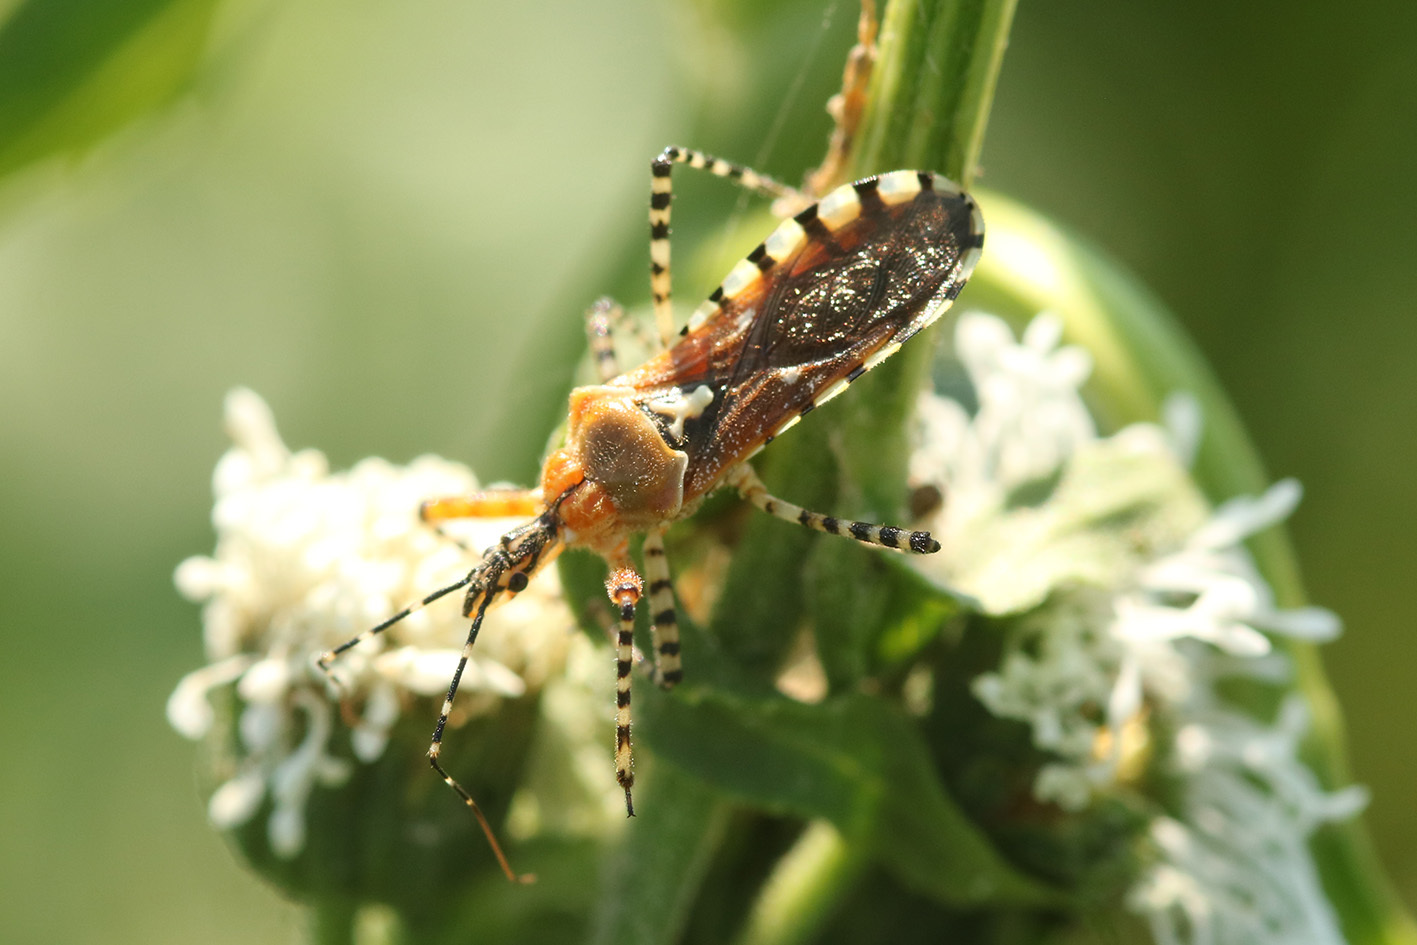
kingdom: Animalia
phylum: Arthropoda
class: Insecta
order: Hemiptera
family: Reduviidae
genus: Cosmoclopius
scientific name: Cosmoclopius nigroannulatus
